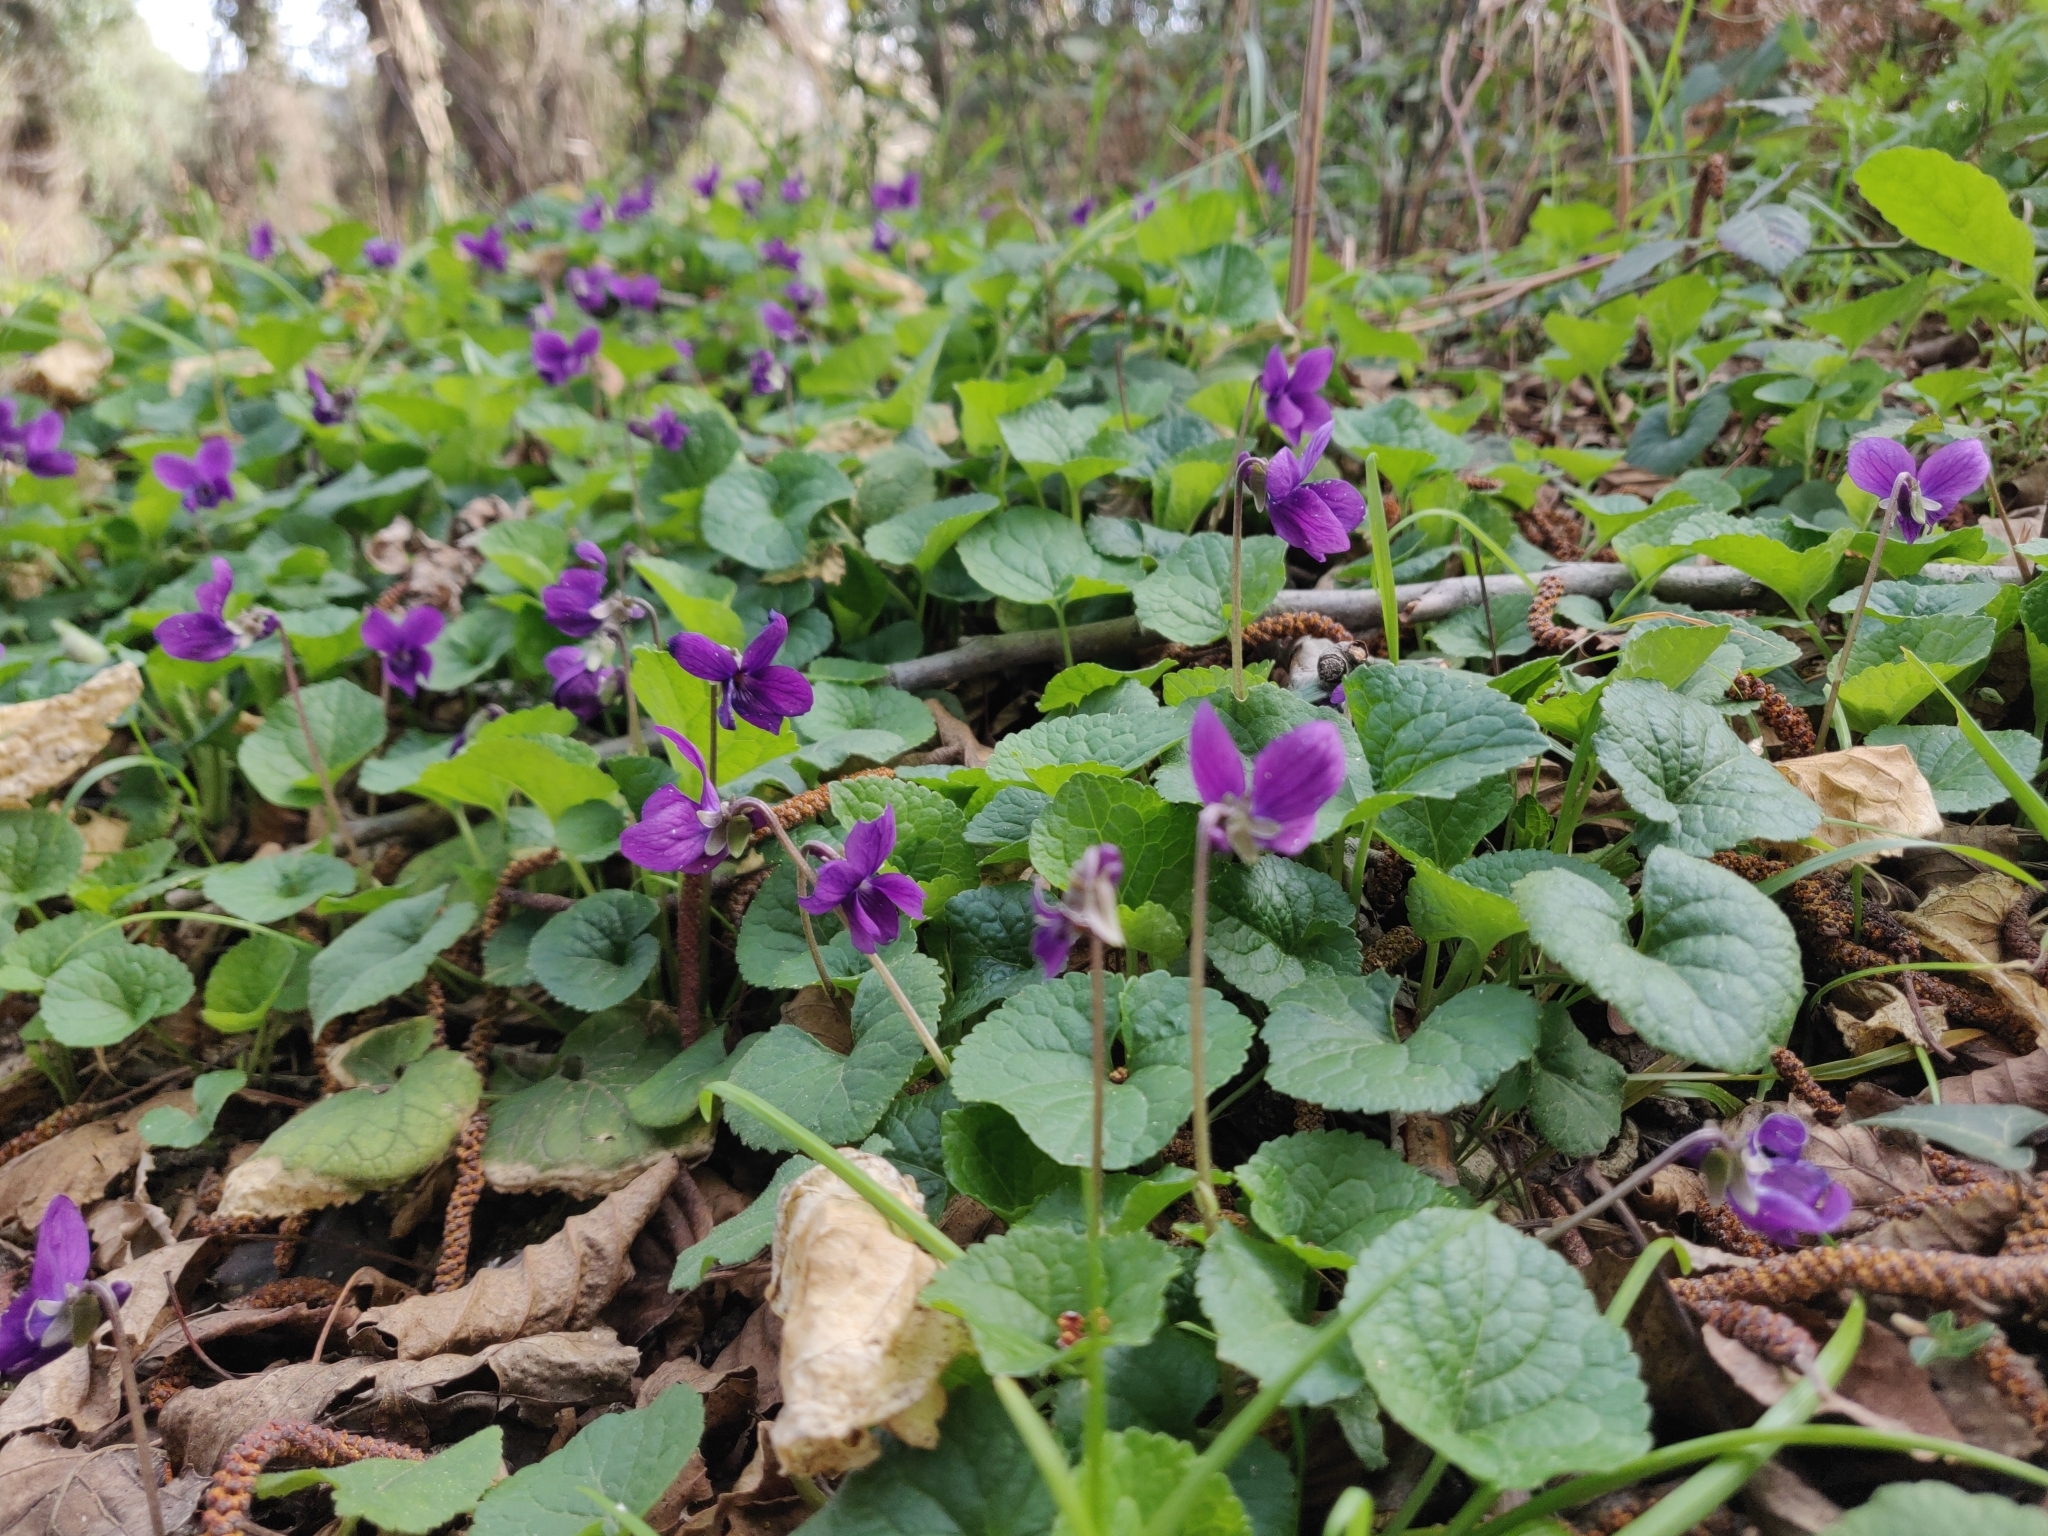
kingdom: Plantae
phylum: Tracheophyta
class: Magnoliopsida
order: Malpighiales
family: Violaceae
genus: Viola
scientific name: Viola odorata
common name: Sweet violet
